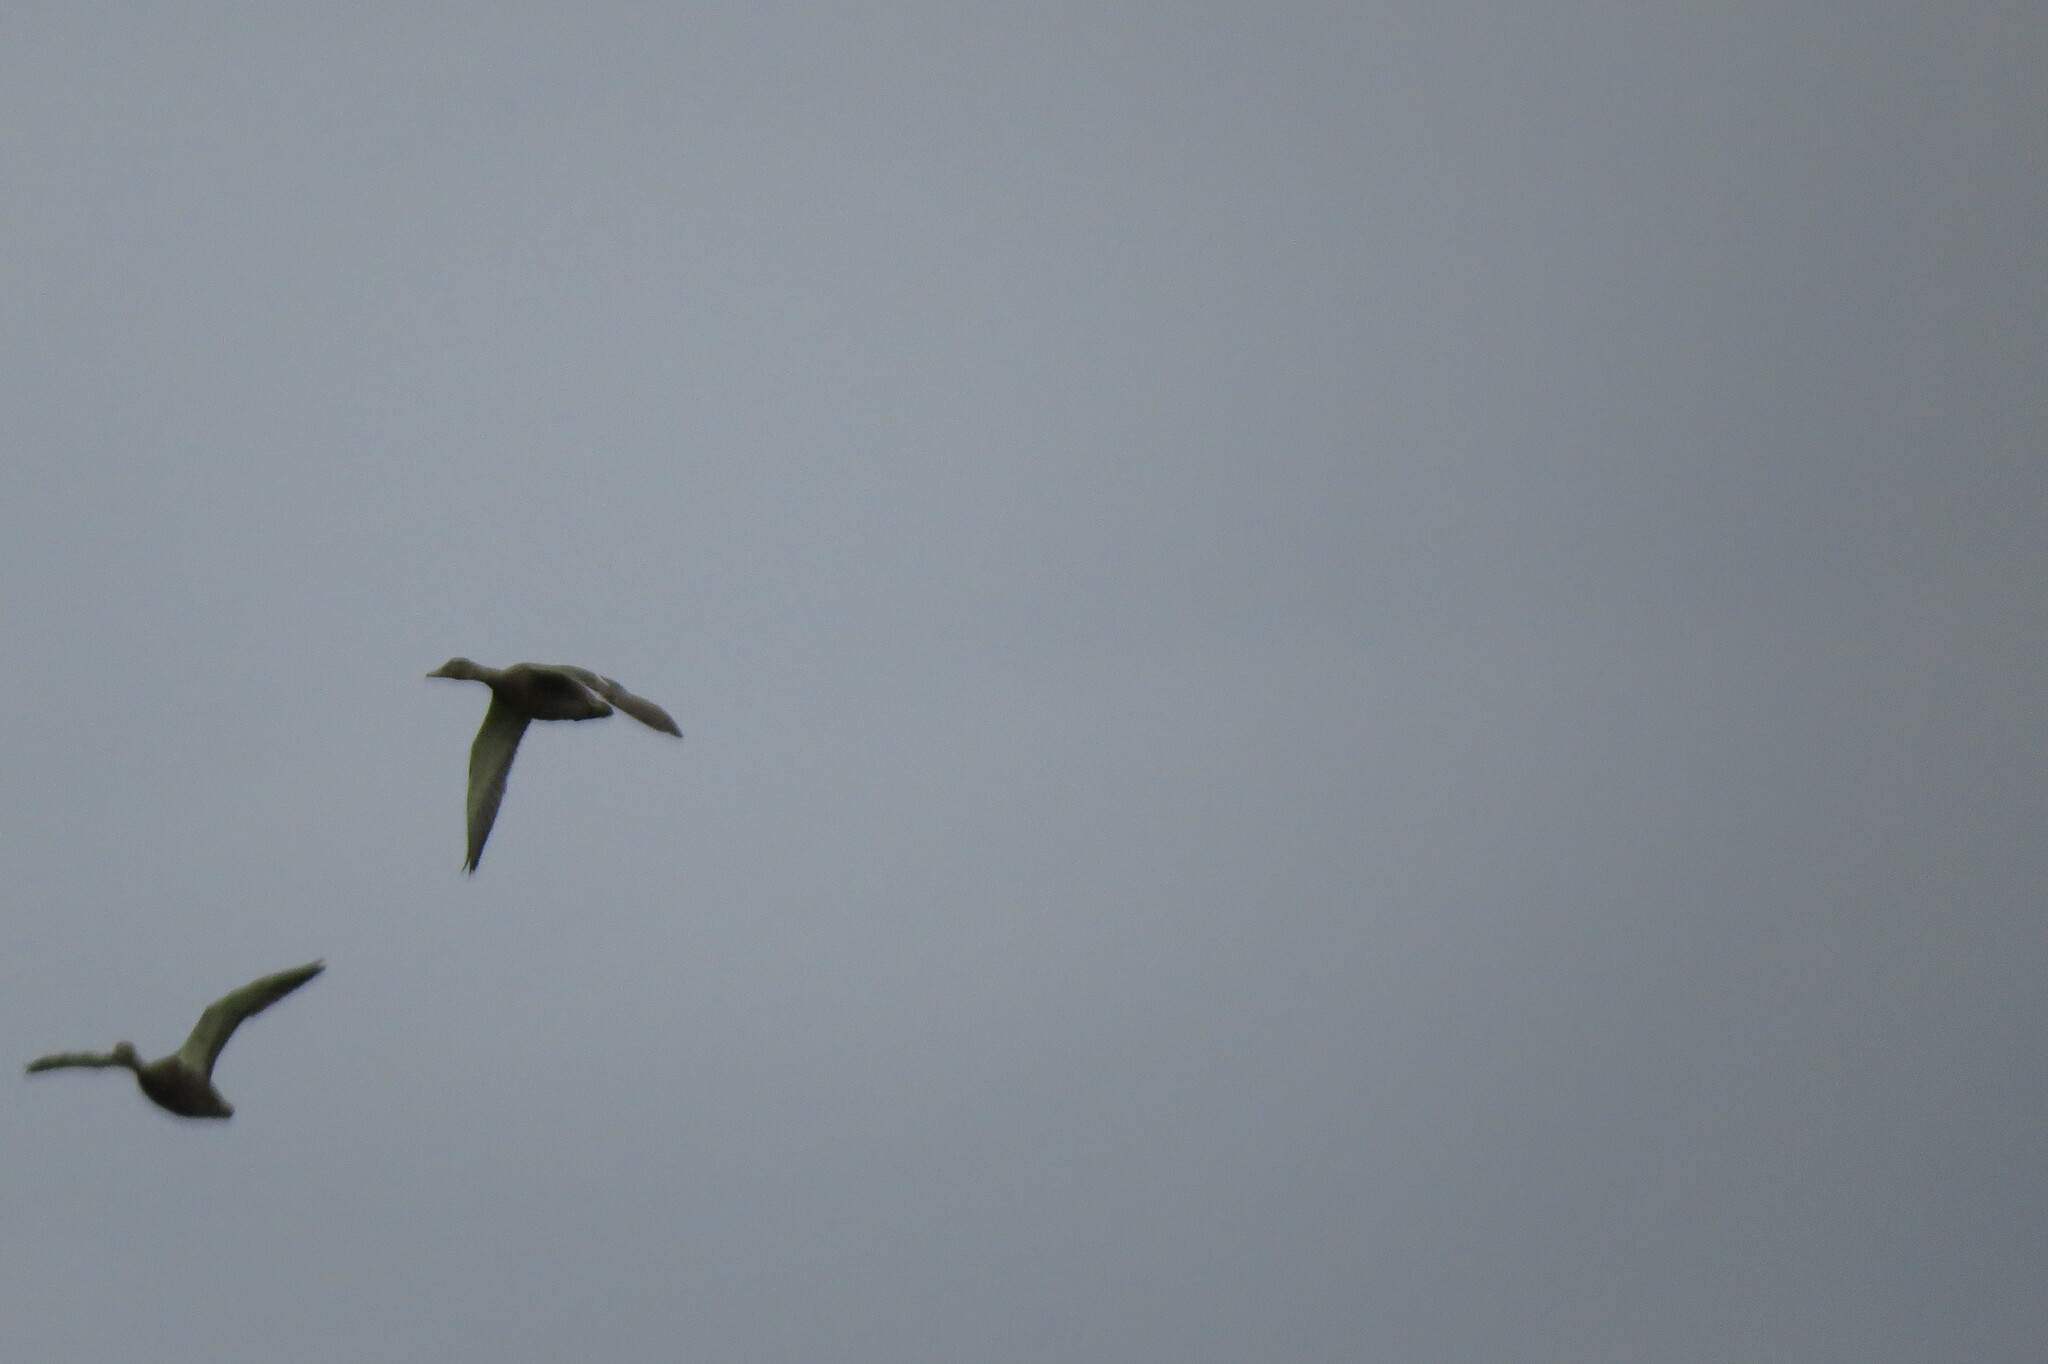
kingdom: Animalia
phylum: Chordata
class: Aves
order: Anseriformes
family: Anatidae
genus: Anas
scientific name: Anas platyrhynchos
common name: Mallard
